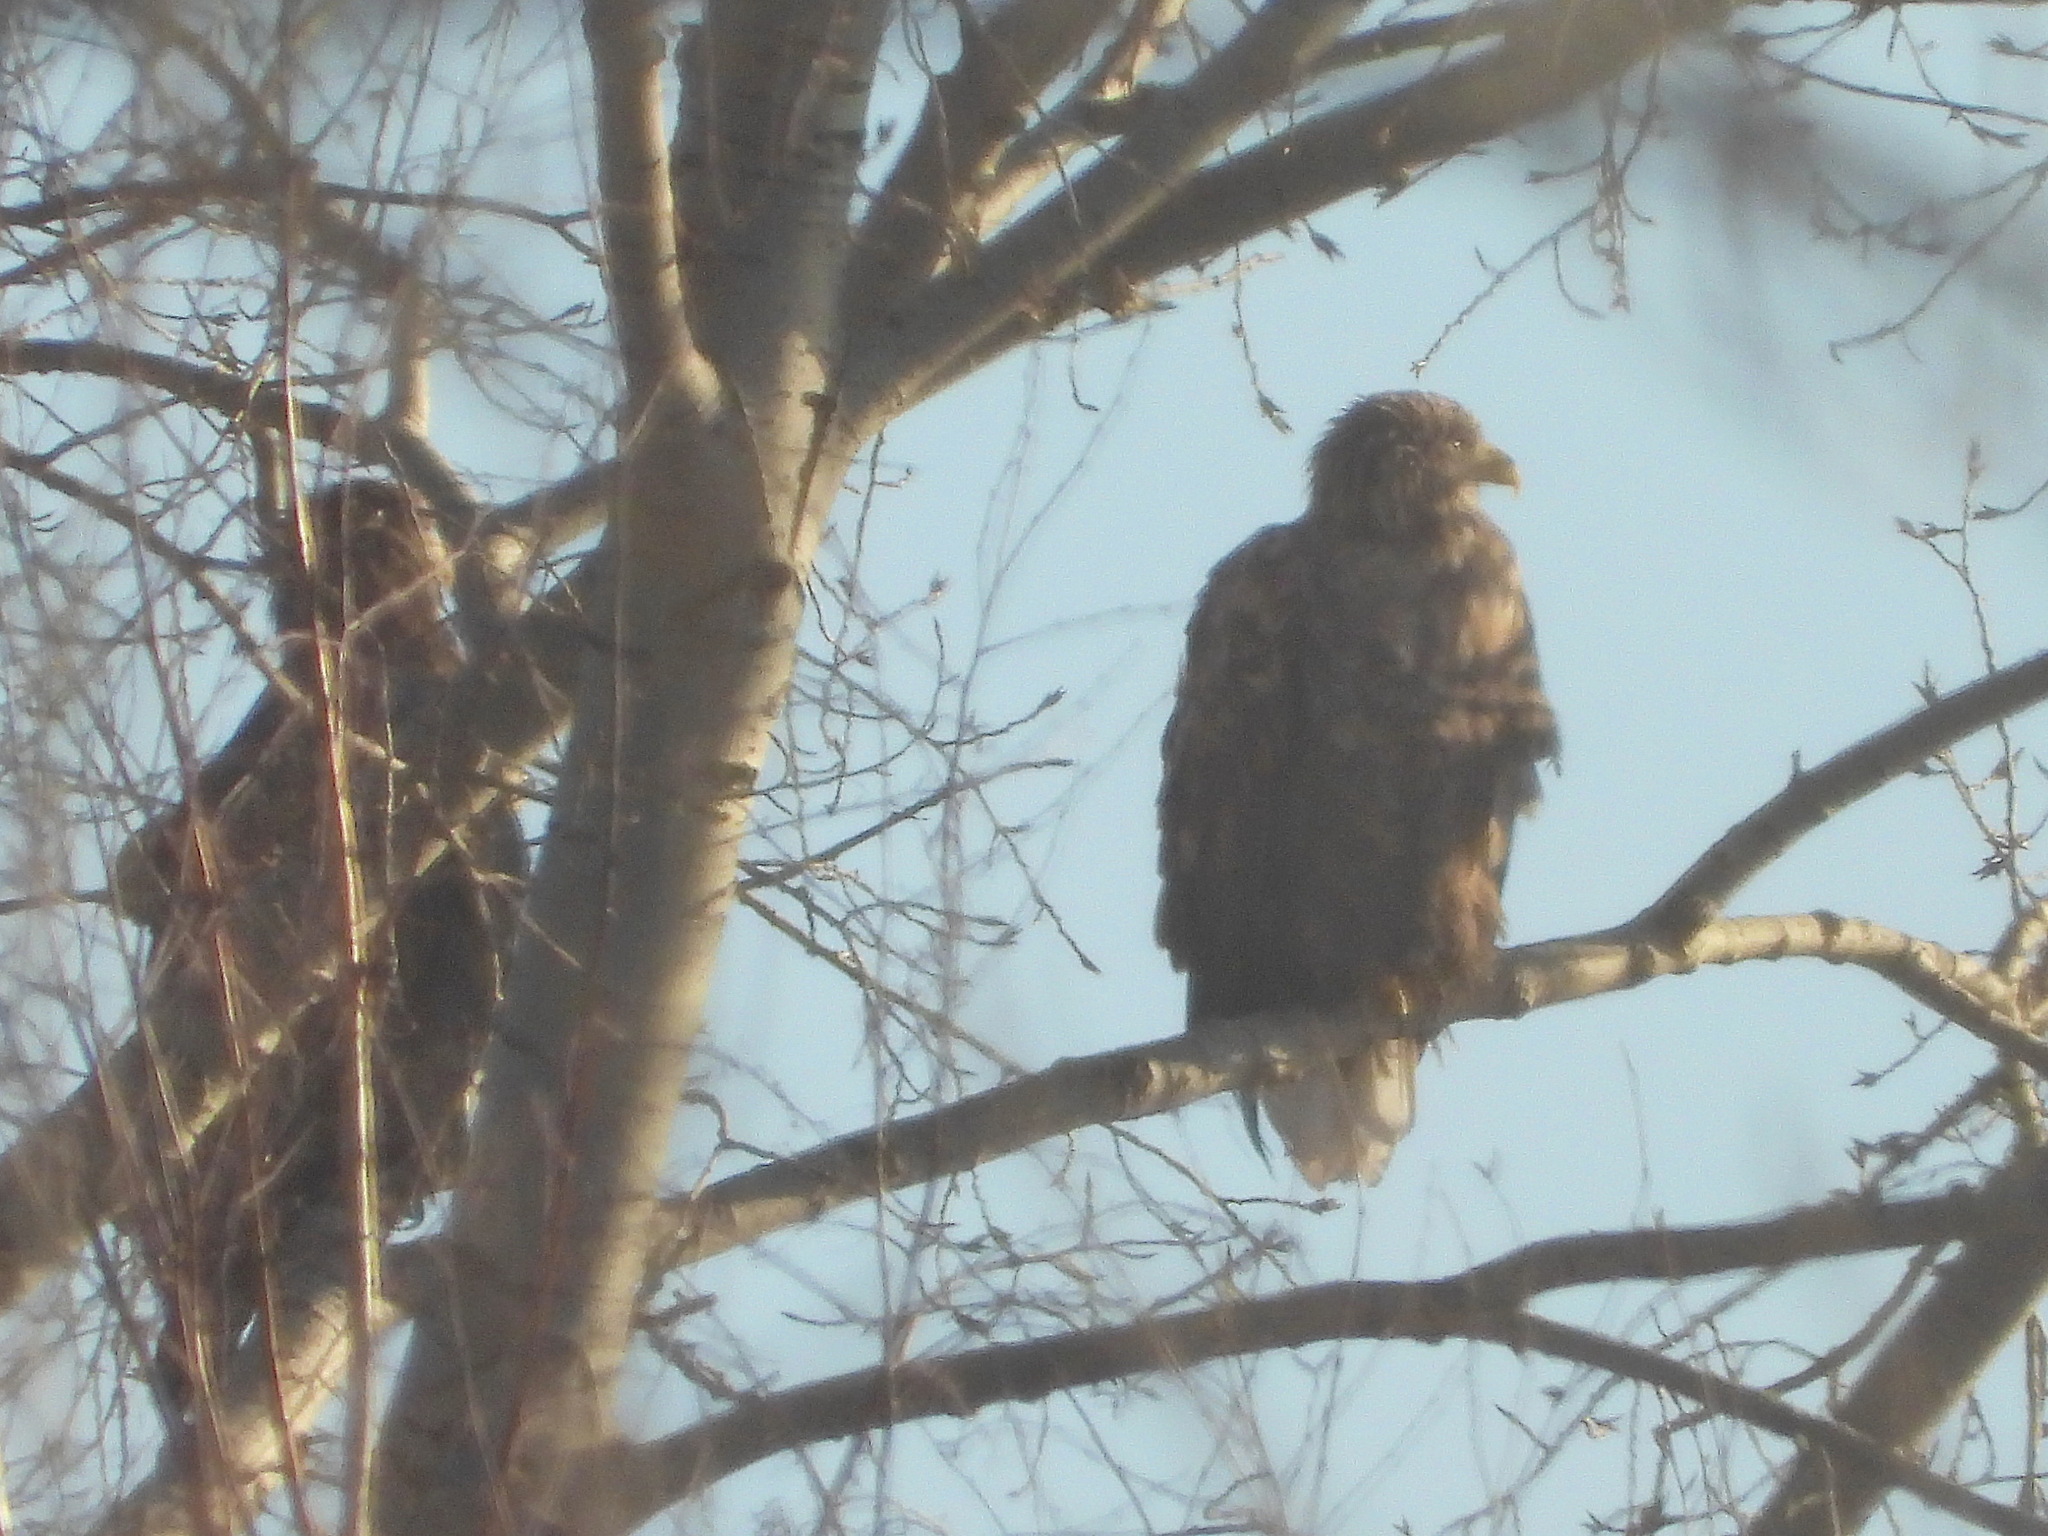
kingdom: Animalia
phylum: Chordata
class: Aves
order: Accipitriformes
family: Accipitridae
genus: Haliaeetus
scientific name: Haliaeetus albicilla
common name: White-tailed eagle
